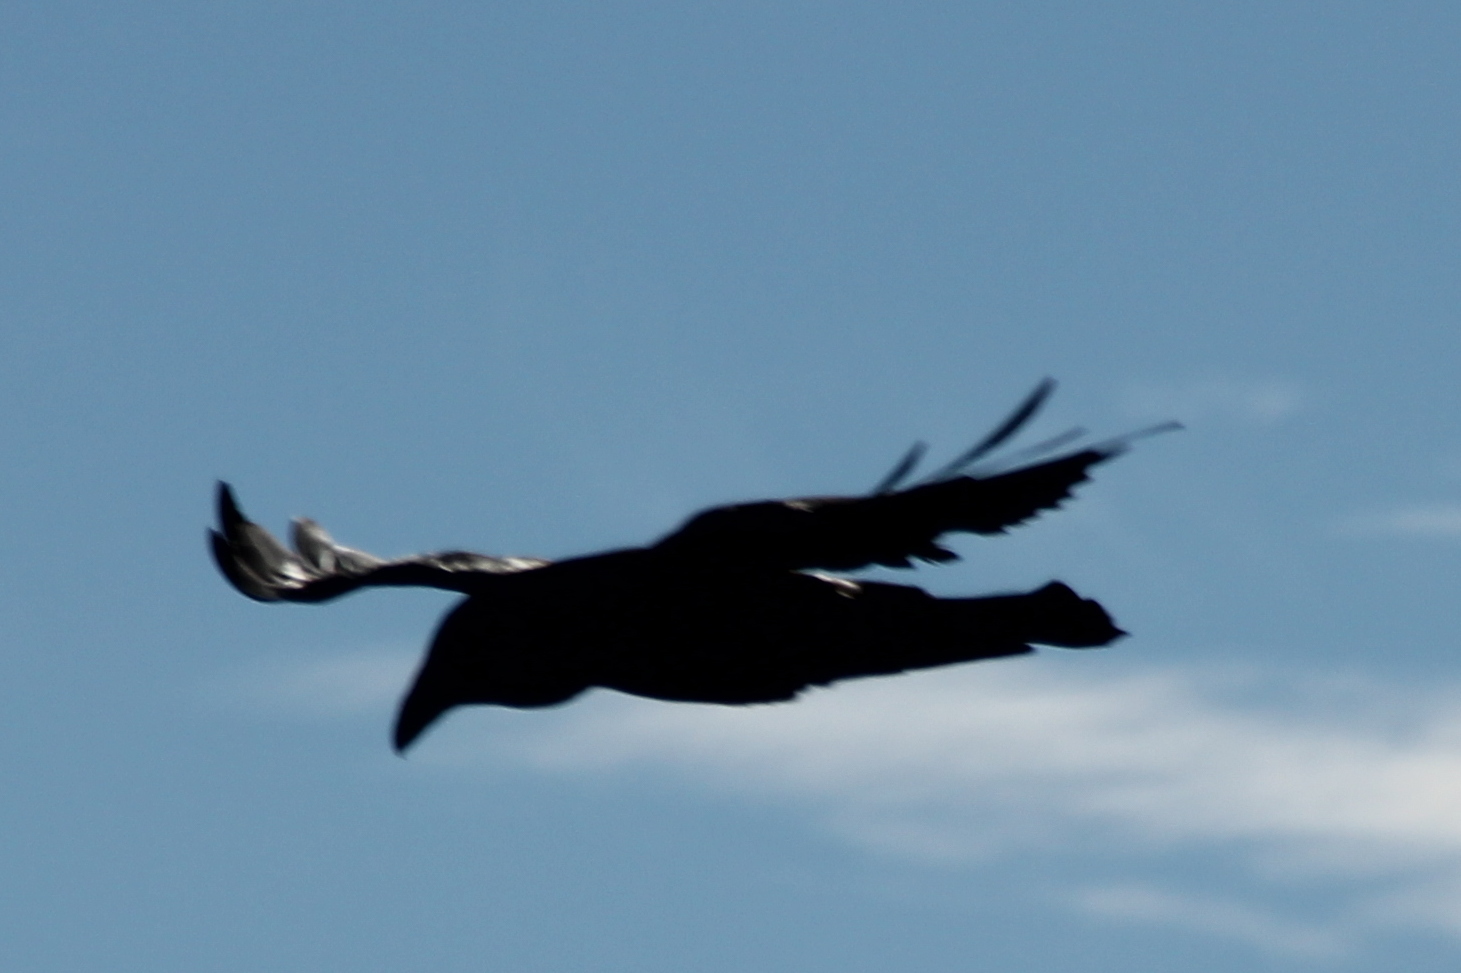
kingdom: Animalia
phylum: Chordata
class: Aves
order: Passeriformes
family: Corvidae
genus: Corvus
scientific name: Corvus corax
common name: Common raven
